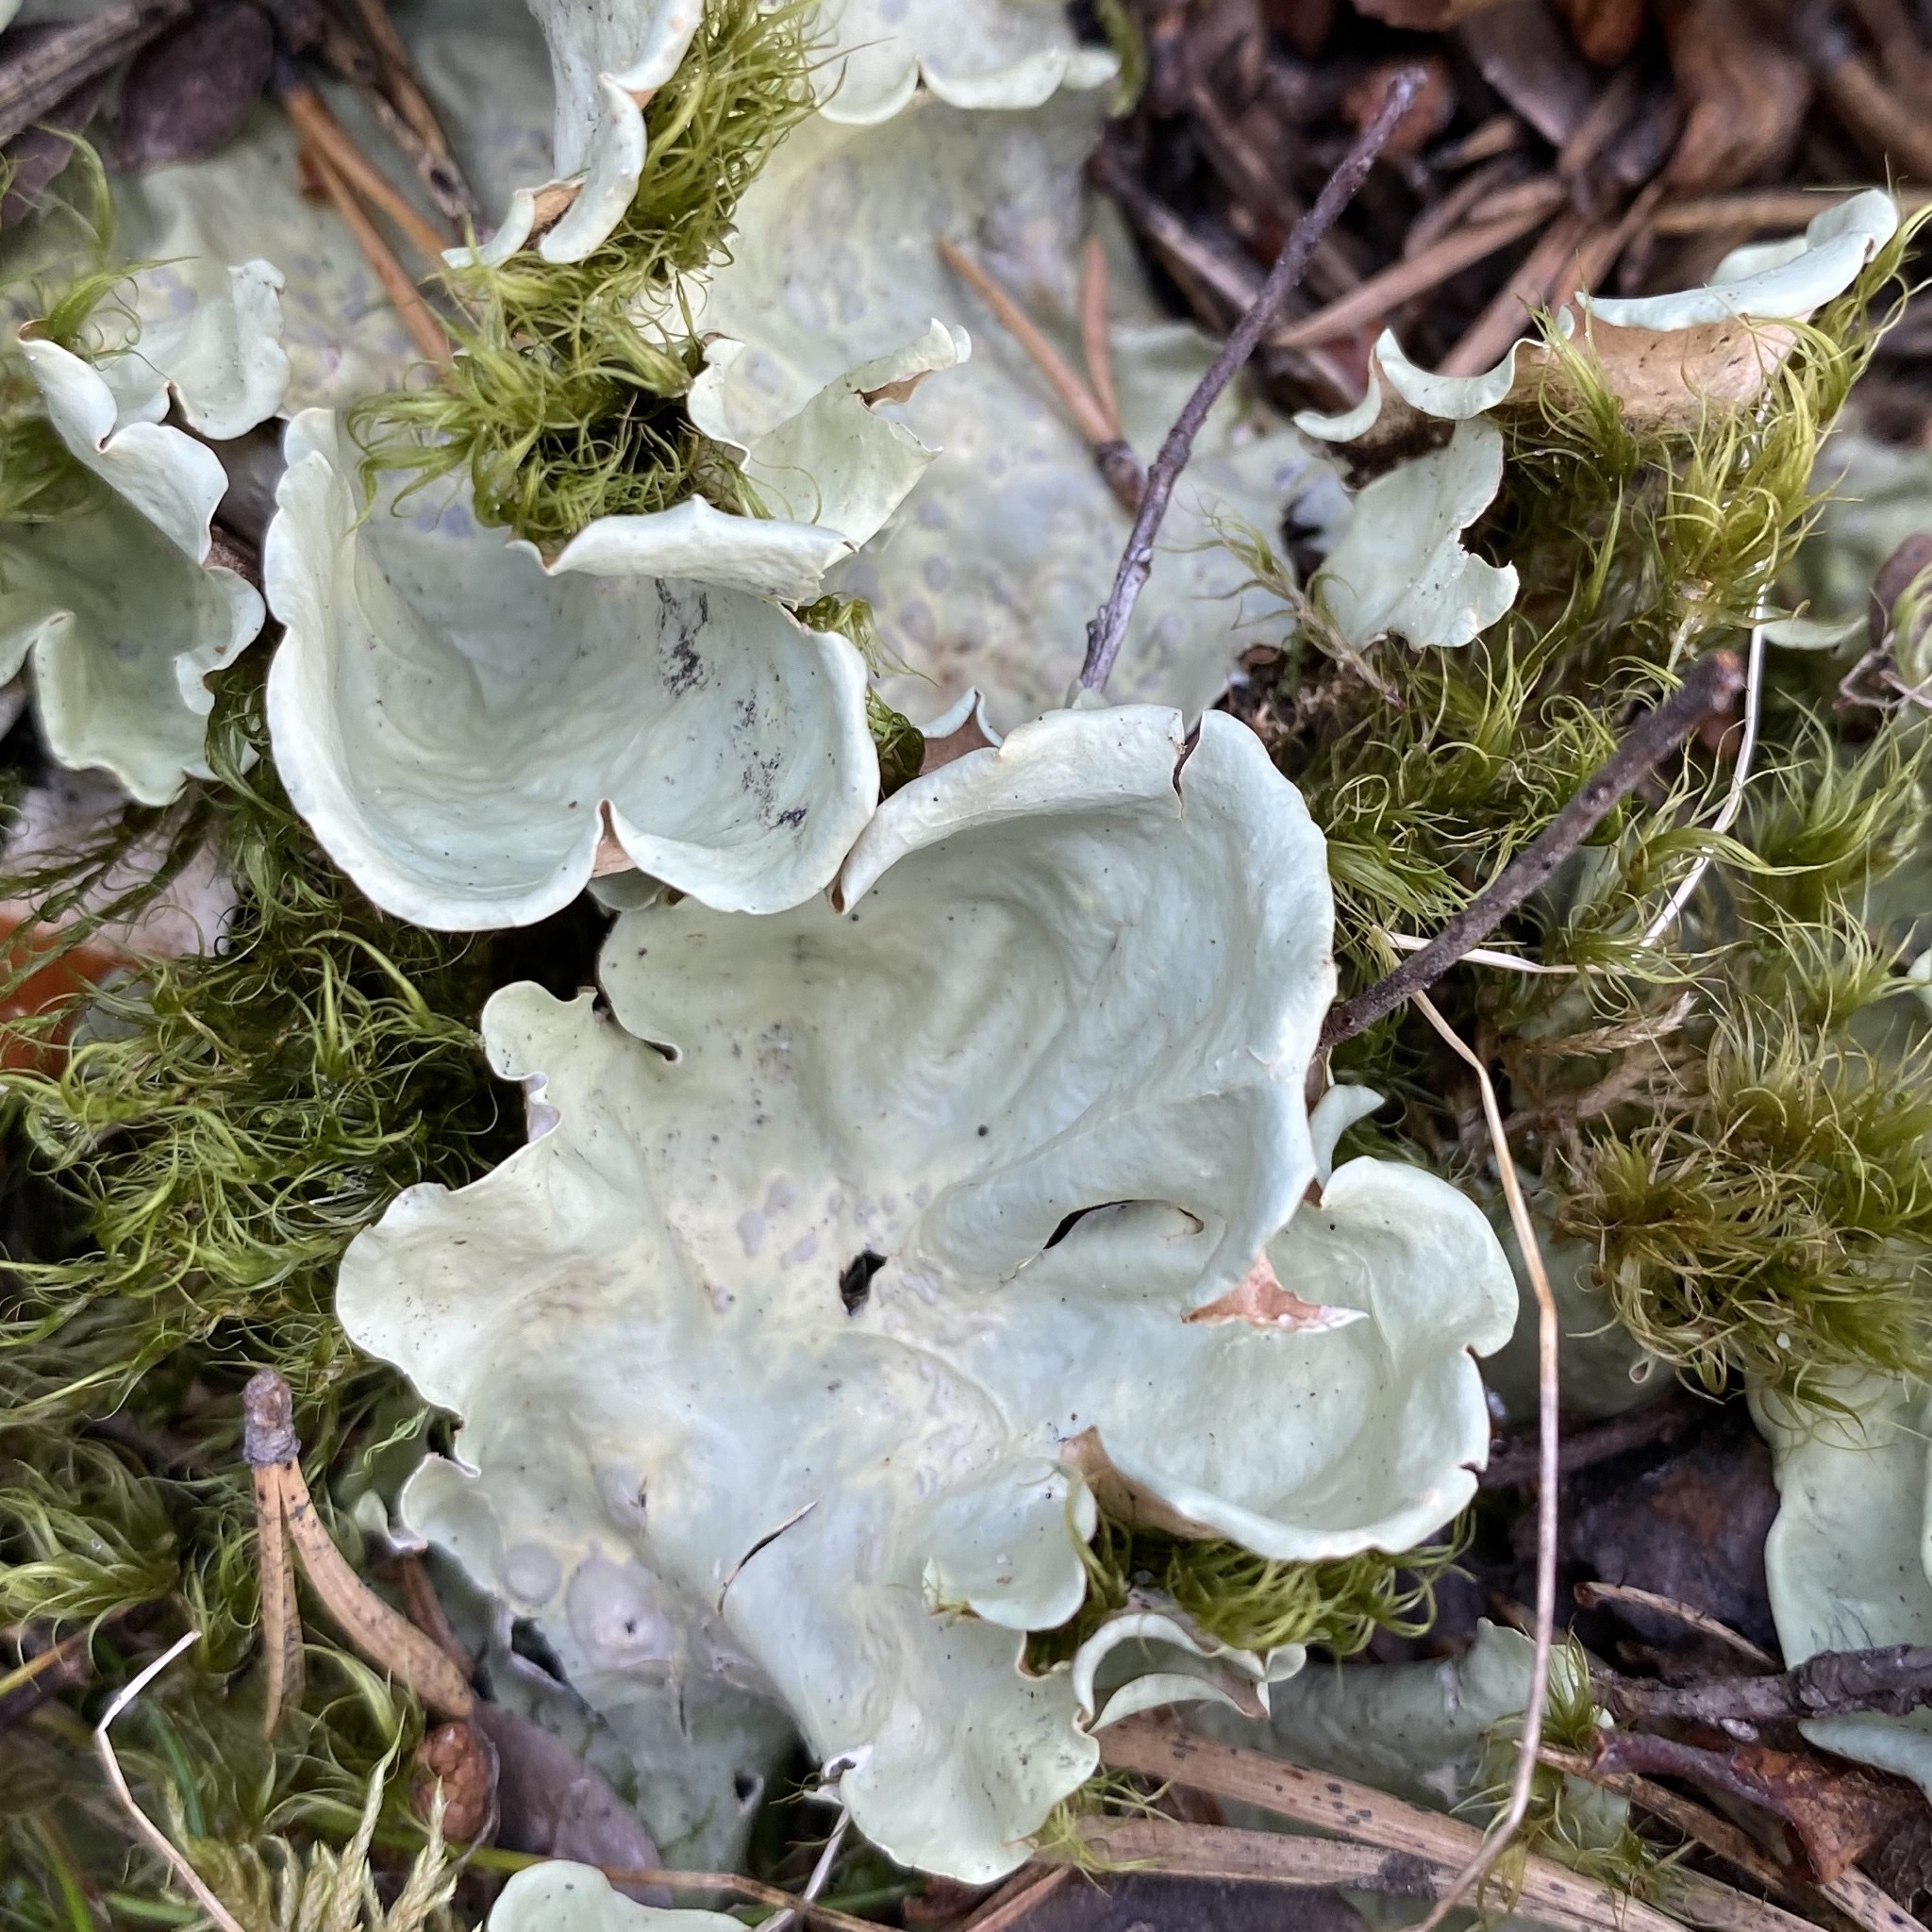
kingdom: Fungi
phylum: Ascomycota
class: Lecanoromycetes
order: Peltigerales
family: Nephromataceae
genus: Nephroma
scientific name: Nephroma arcticum
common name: Arctic kidney-lichen
